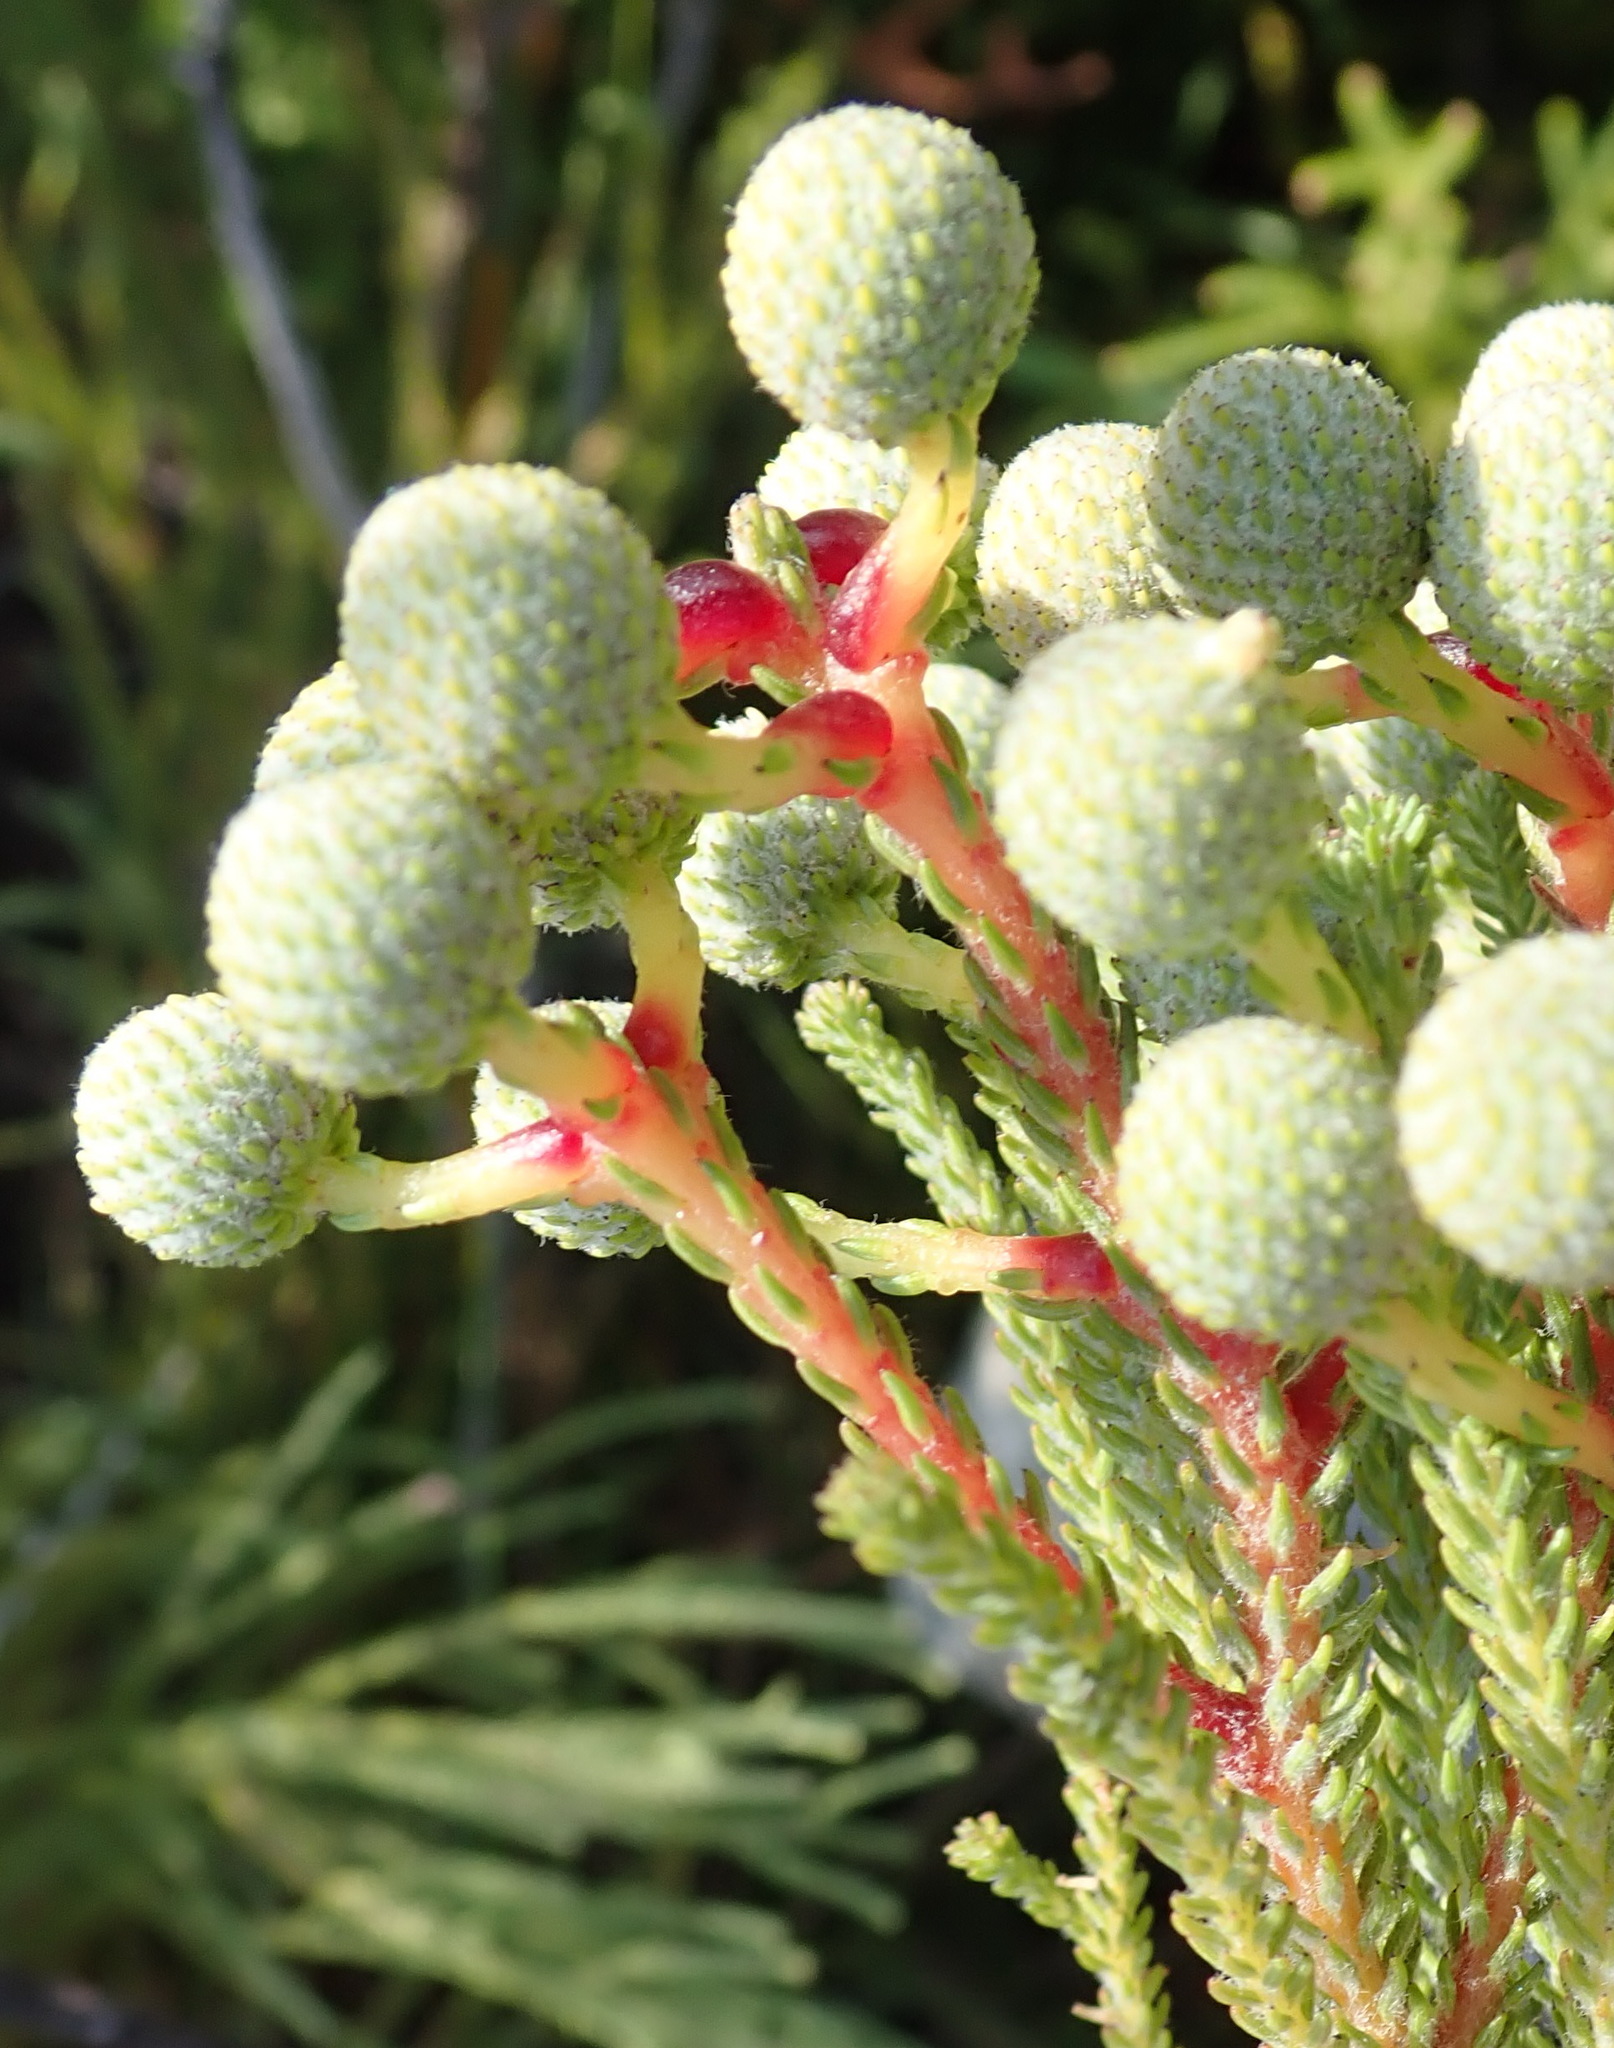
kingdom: Plantae
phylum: Tracheophyta
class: Magnoliopsida
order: Bruniales
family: Bruniaceae
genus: Berzelia
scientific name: Berzelia abrotanoides
